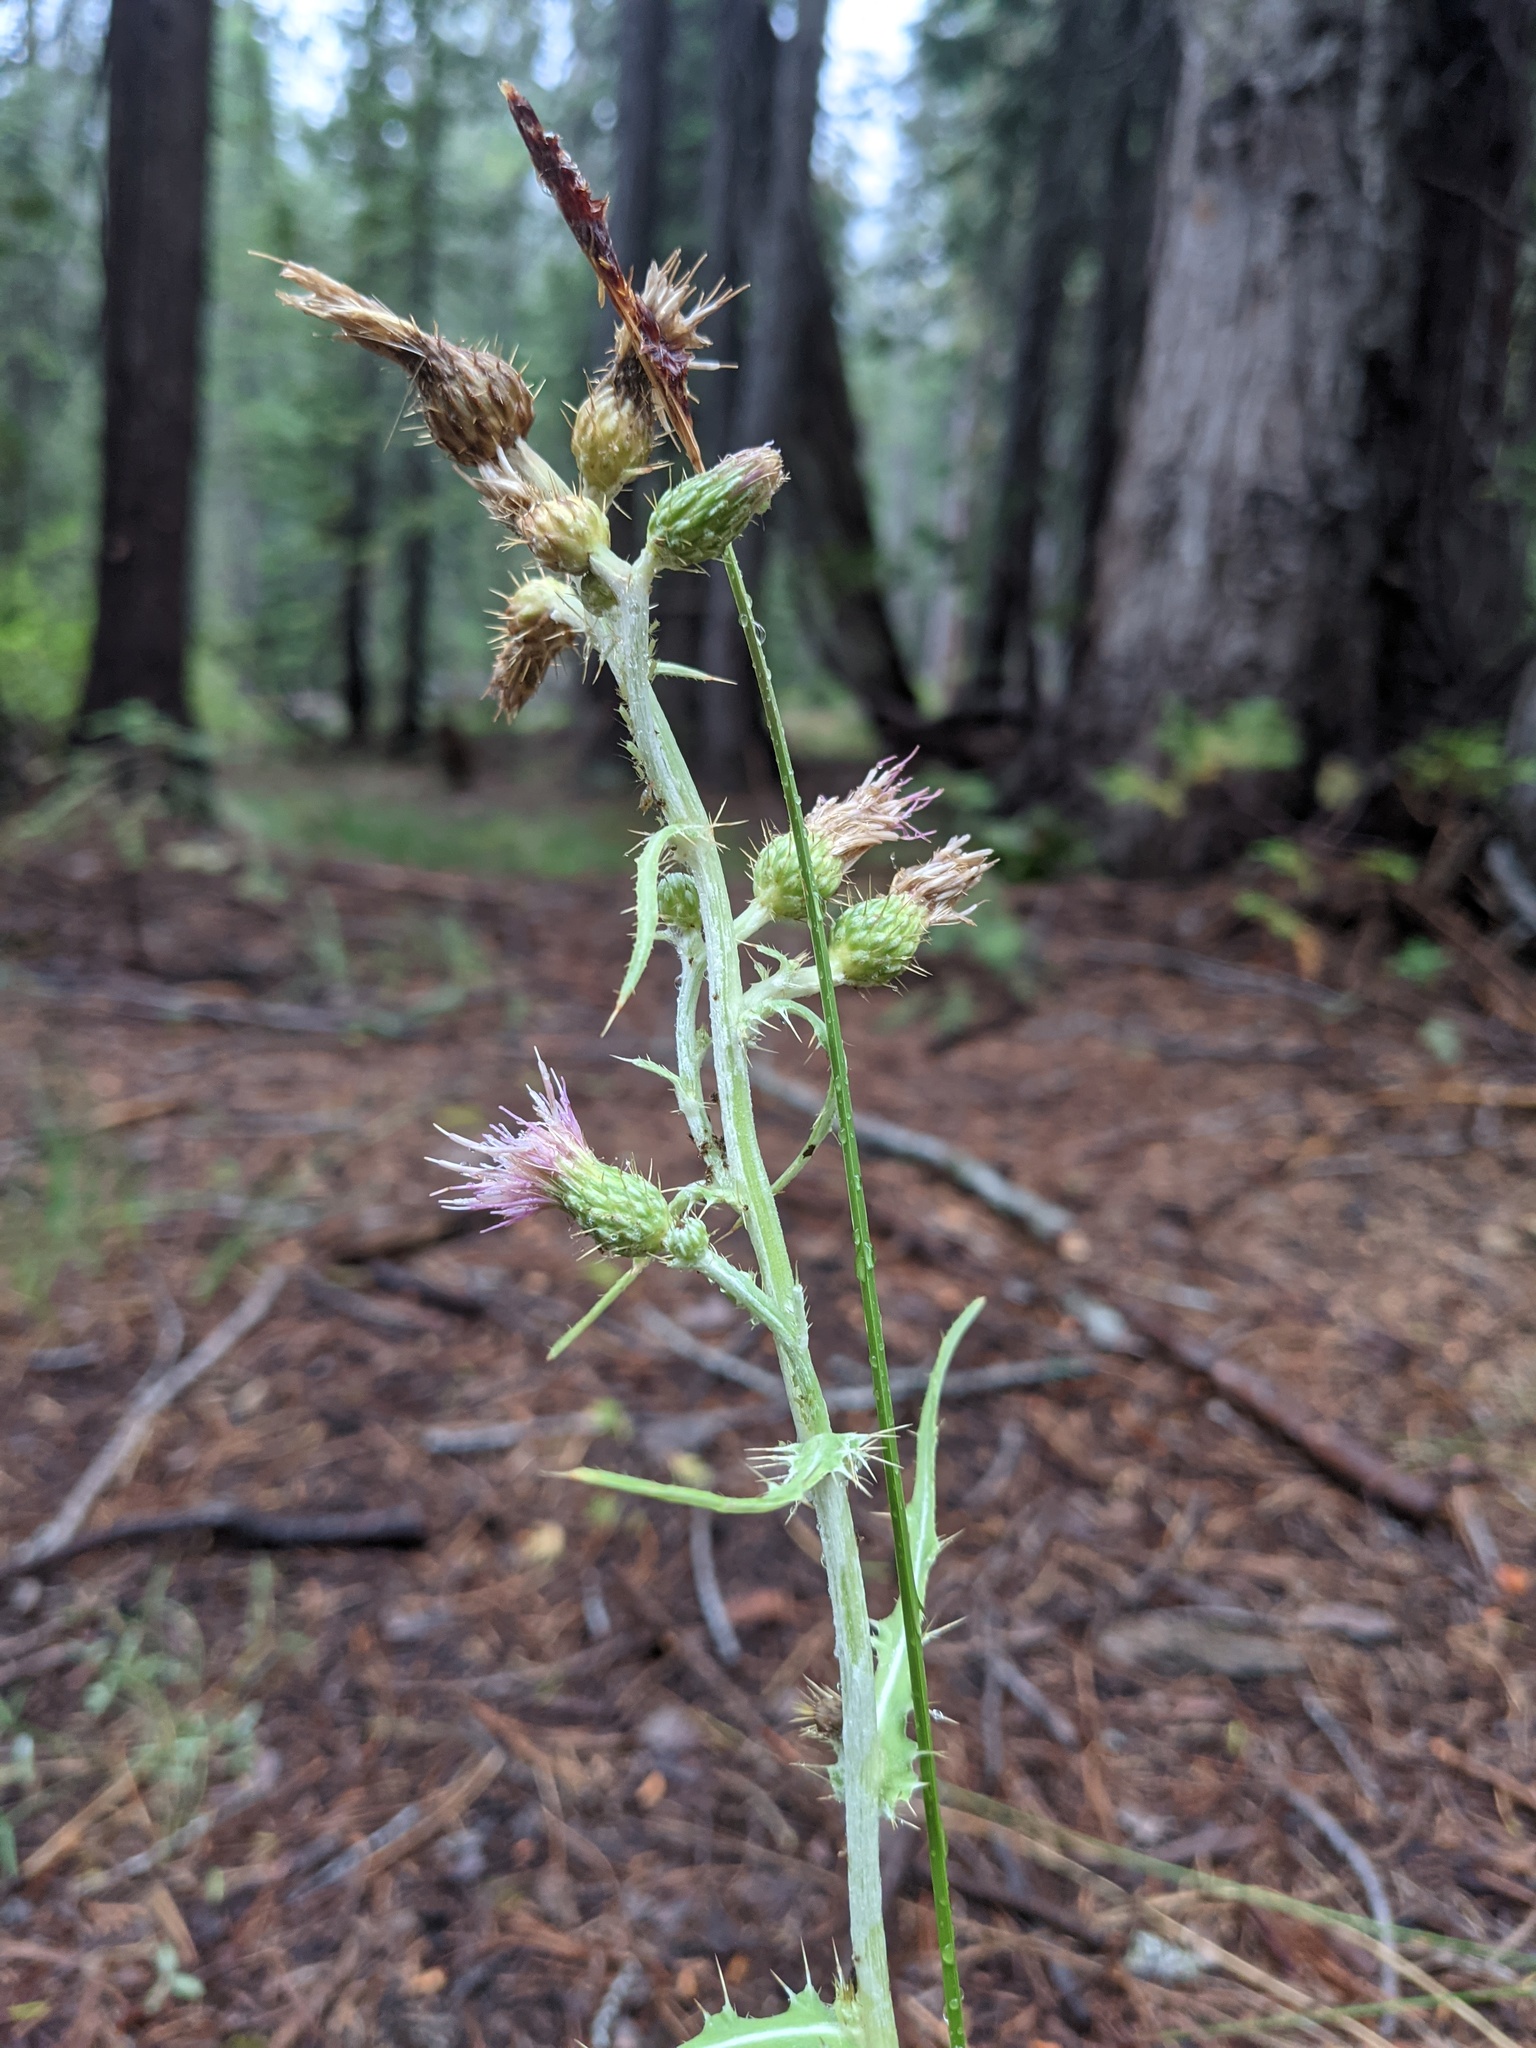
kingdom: Plantae
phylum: Tracheophyta
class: Magnoliopsida
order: Asterales
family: Asteraceae
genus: Cirsium
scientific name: Cirsium douglasii
